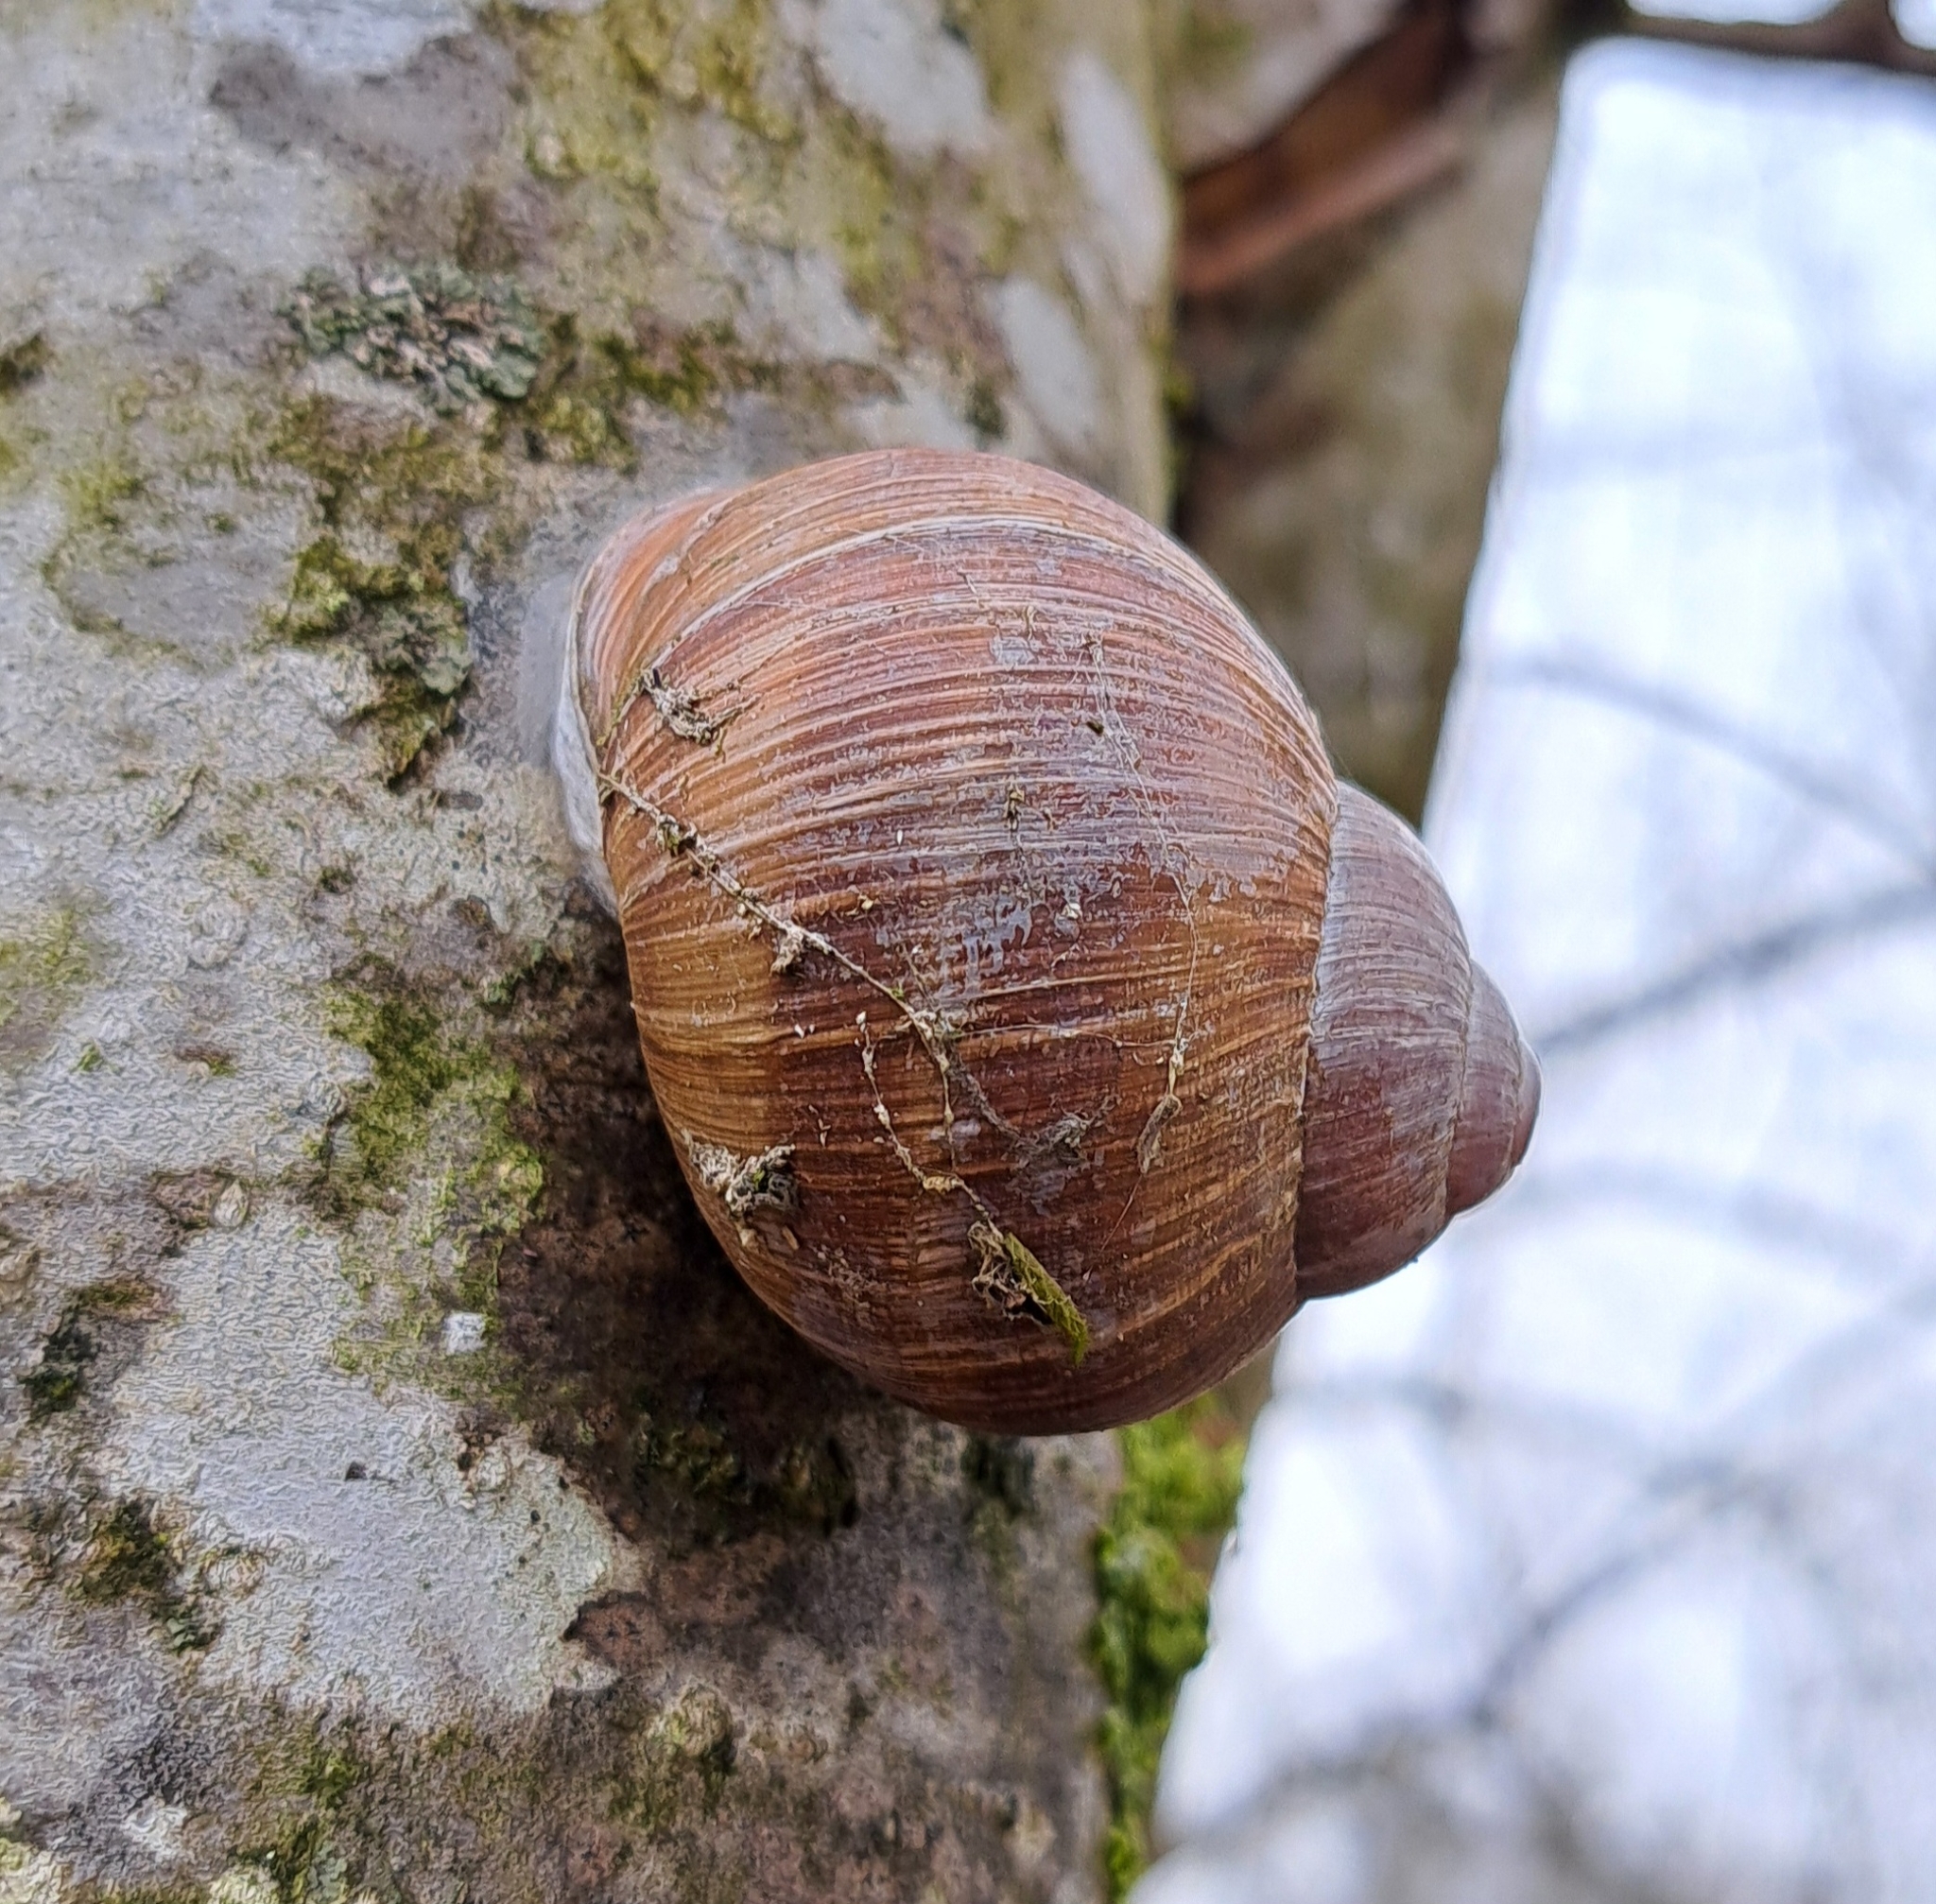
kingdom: Animalia
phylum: Mollusca
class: Gastropoda
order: Stylommatophora
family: Helicidae
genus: Helix
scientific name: Helix pomatia
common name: Roman snail
